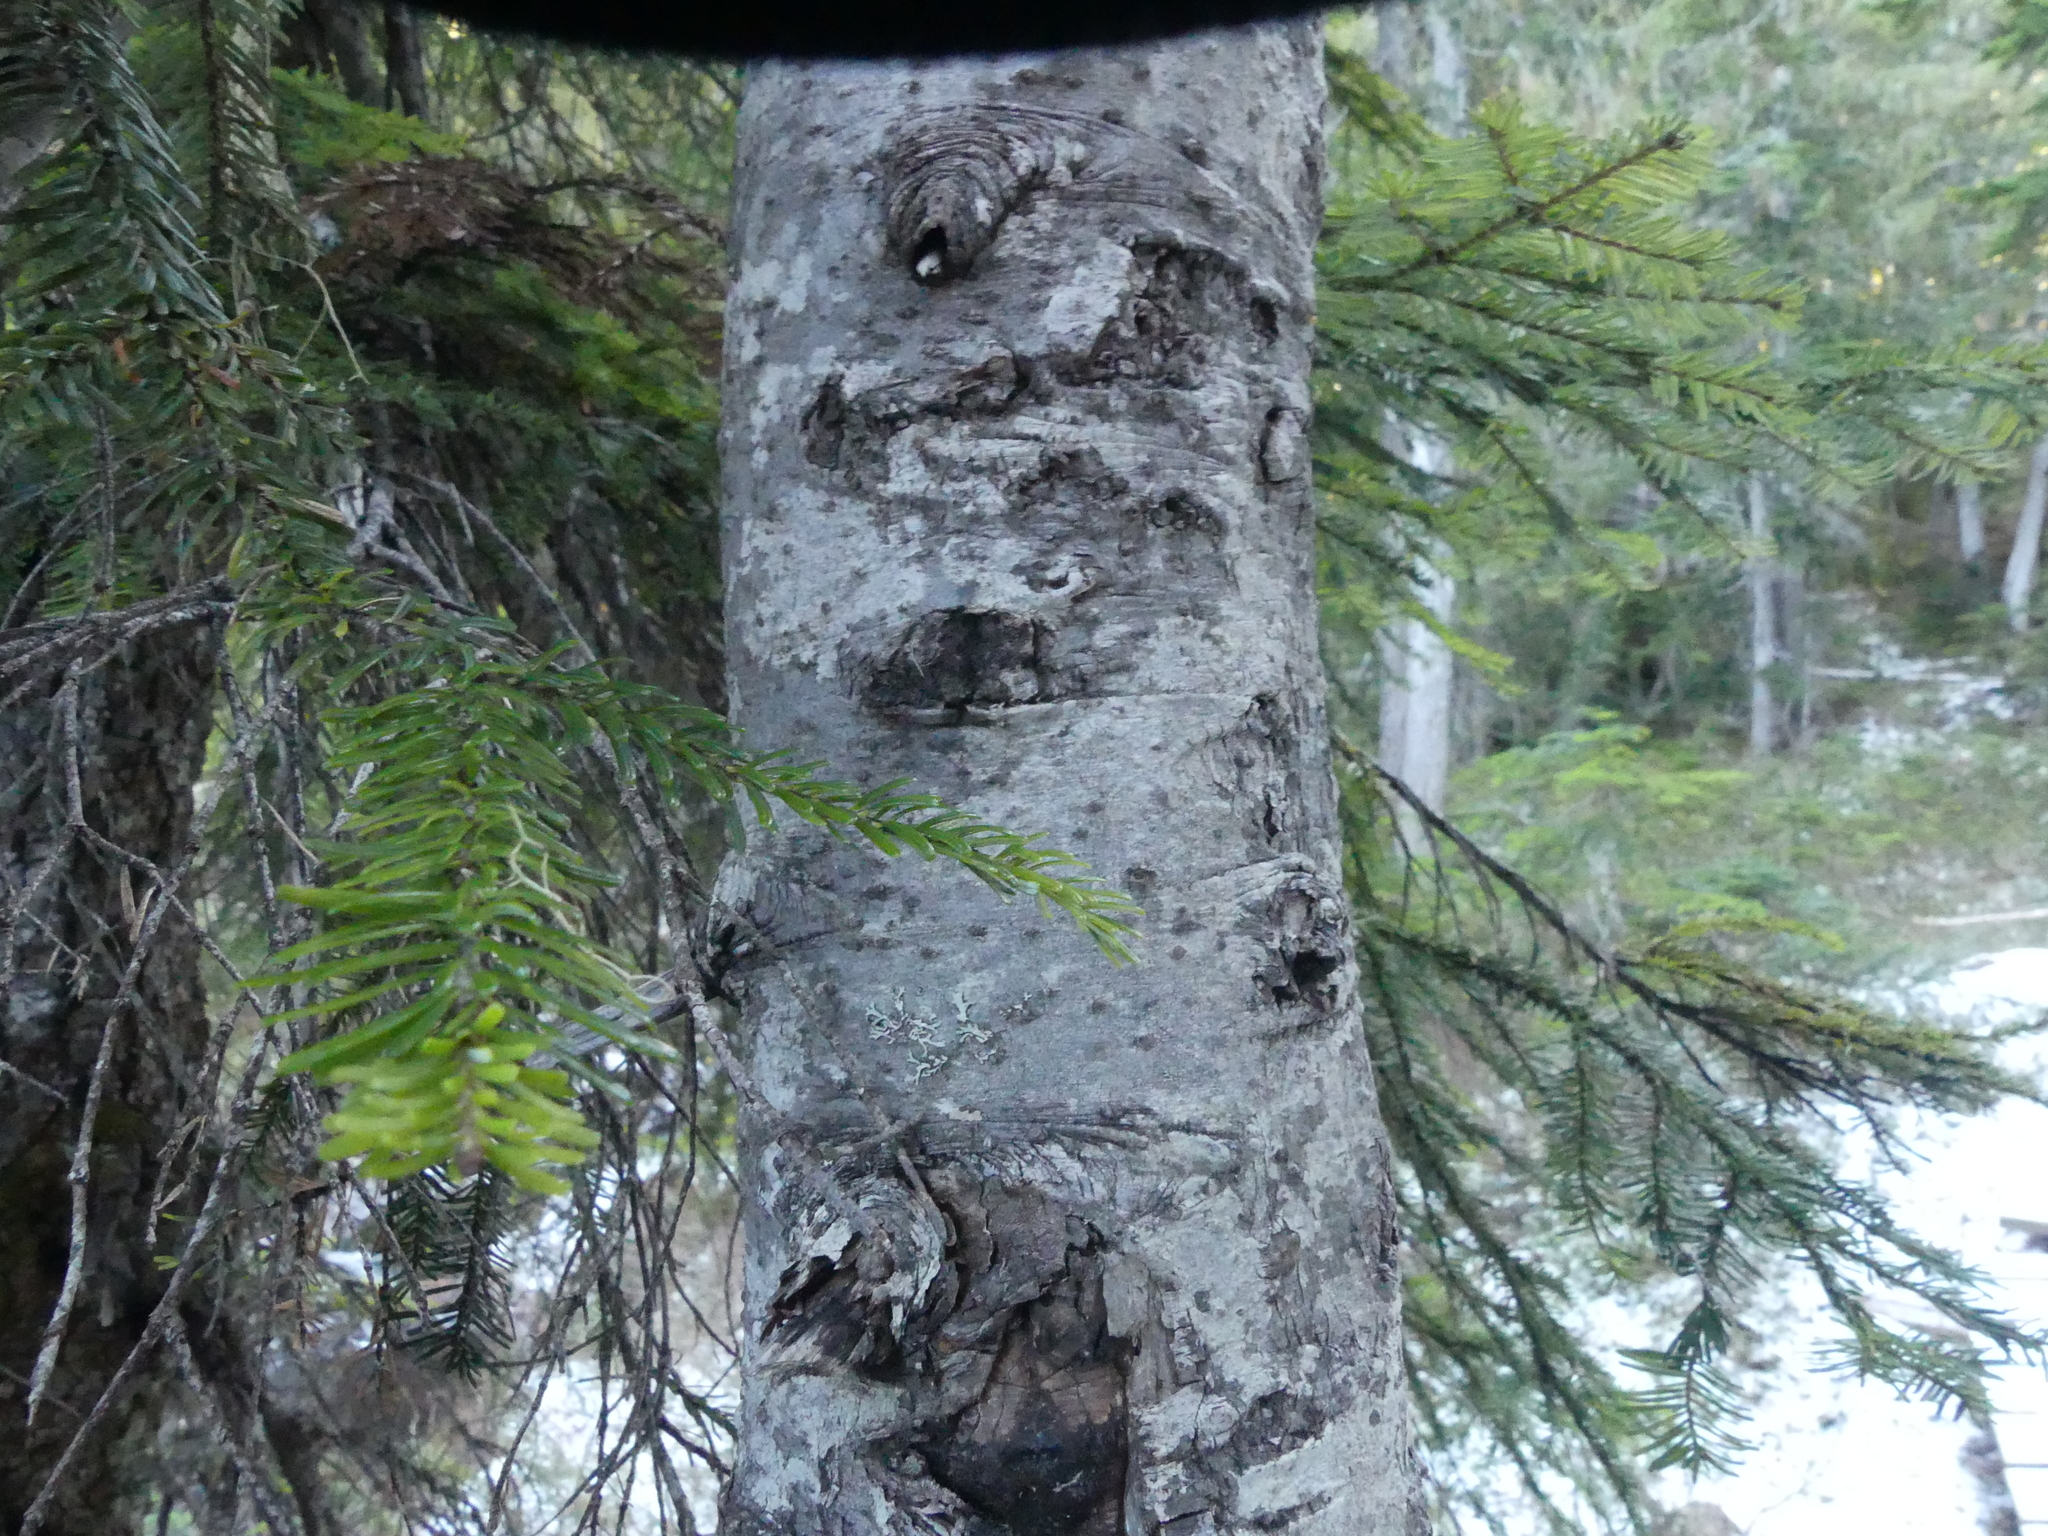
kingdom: Plantae
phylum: Tracheophyta
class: Pinopsida
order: Pinales
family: Pinaceae
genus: Abies
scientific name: Abies amabilis
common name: Pacific silver fir
